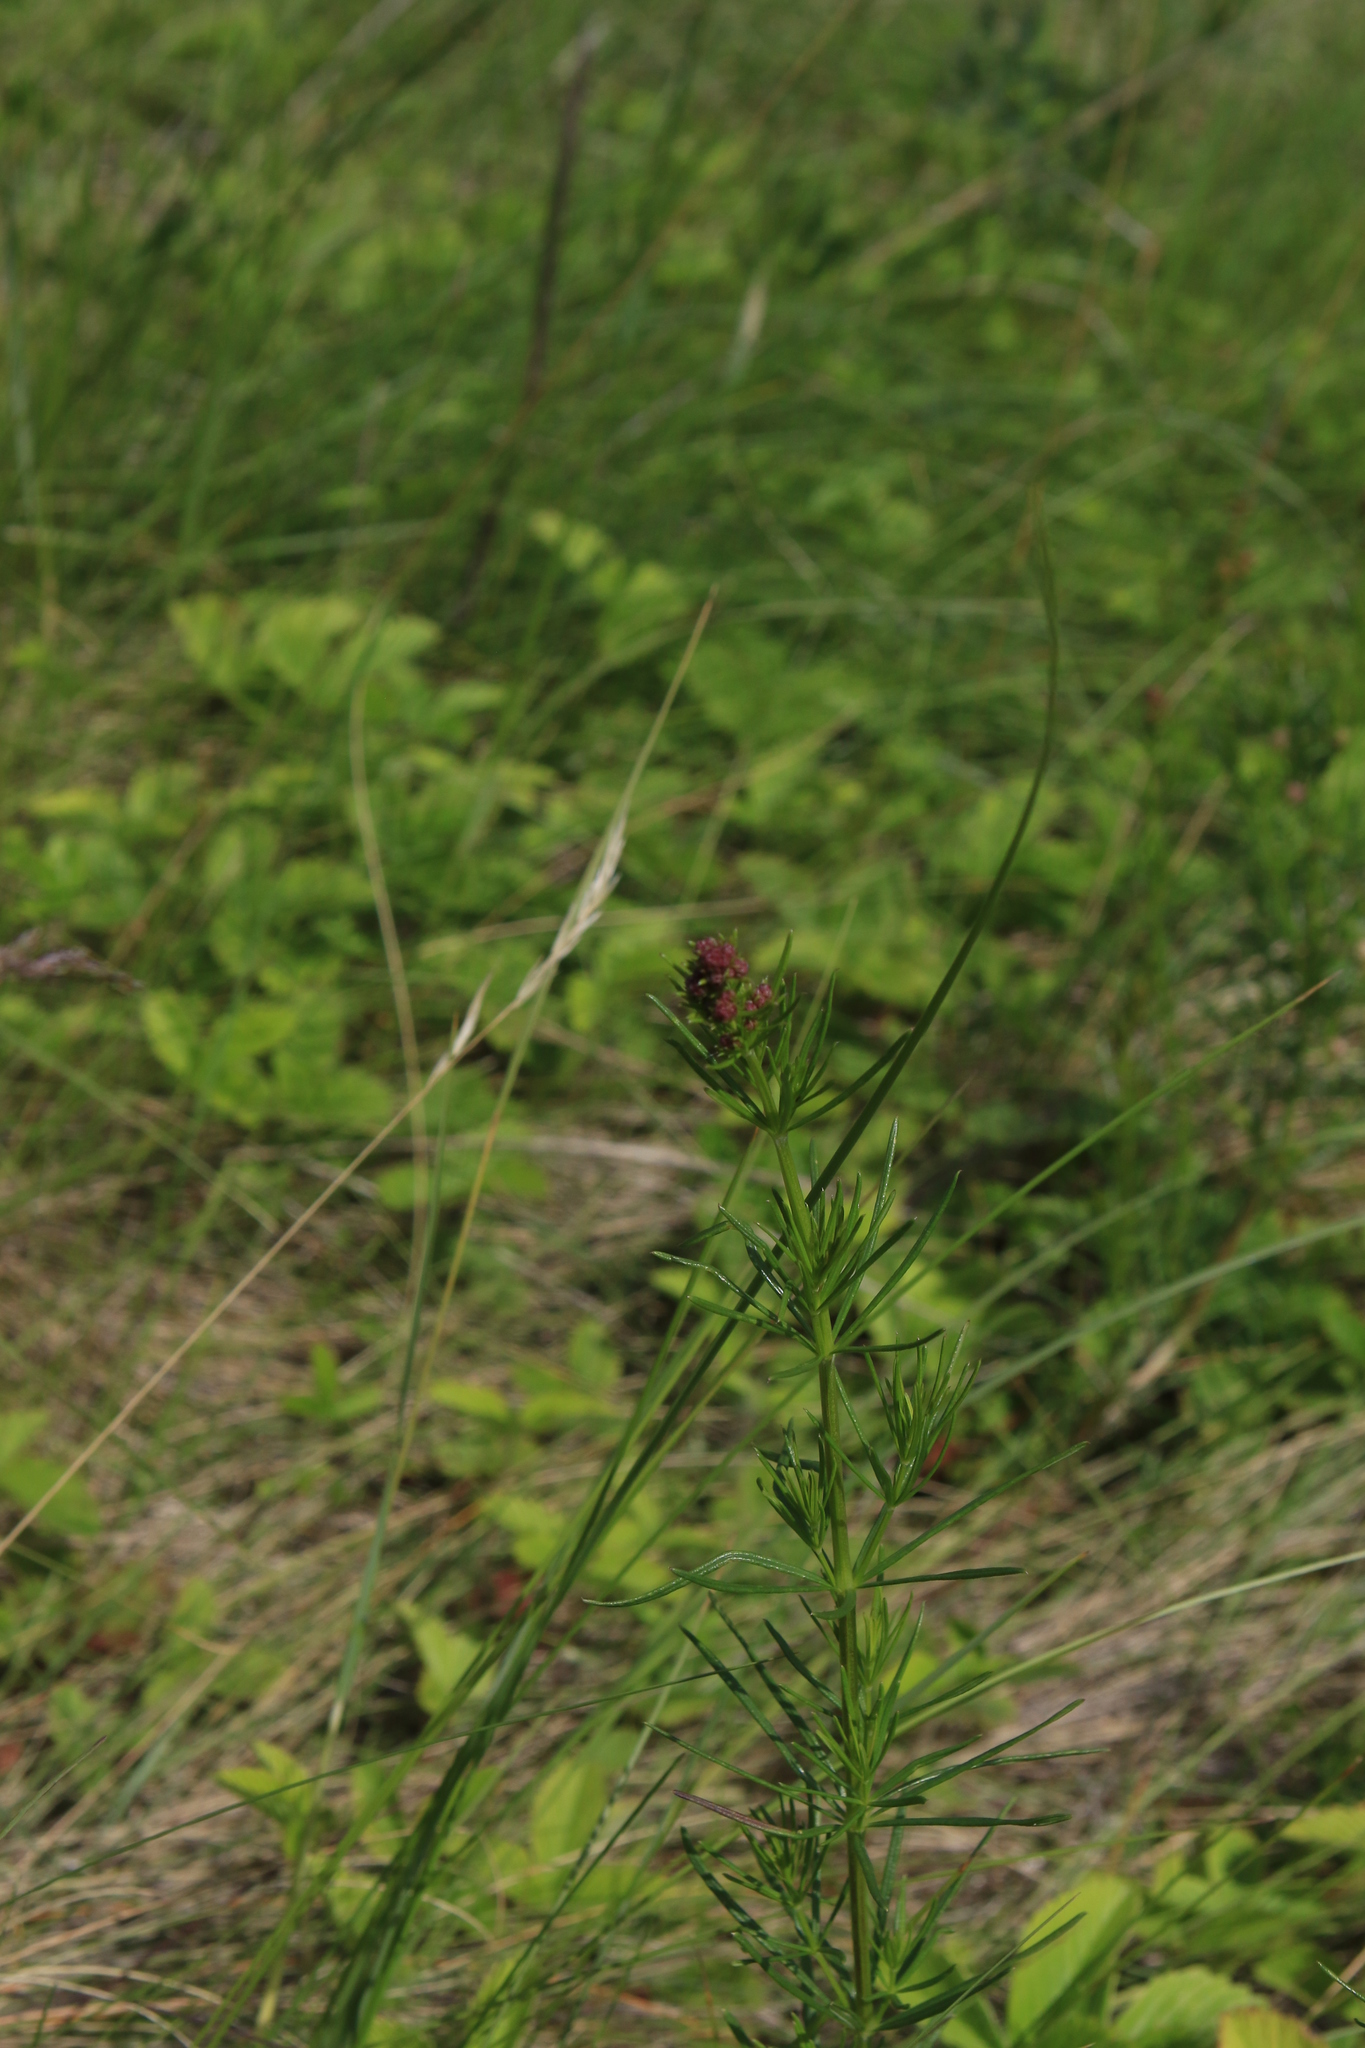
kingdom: Plantae
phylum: Tracheophyta
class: Magnoliopsida
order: Gentianales
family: Rubiaceae
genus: Galium
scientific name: Galium verum
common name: Lady's bedstraw
